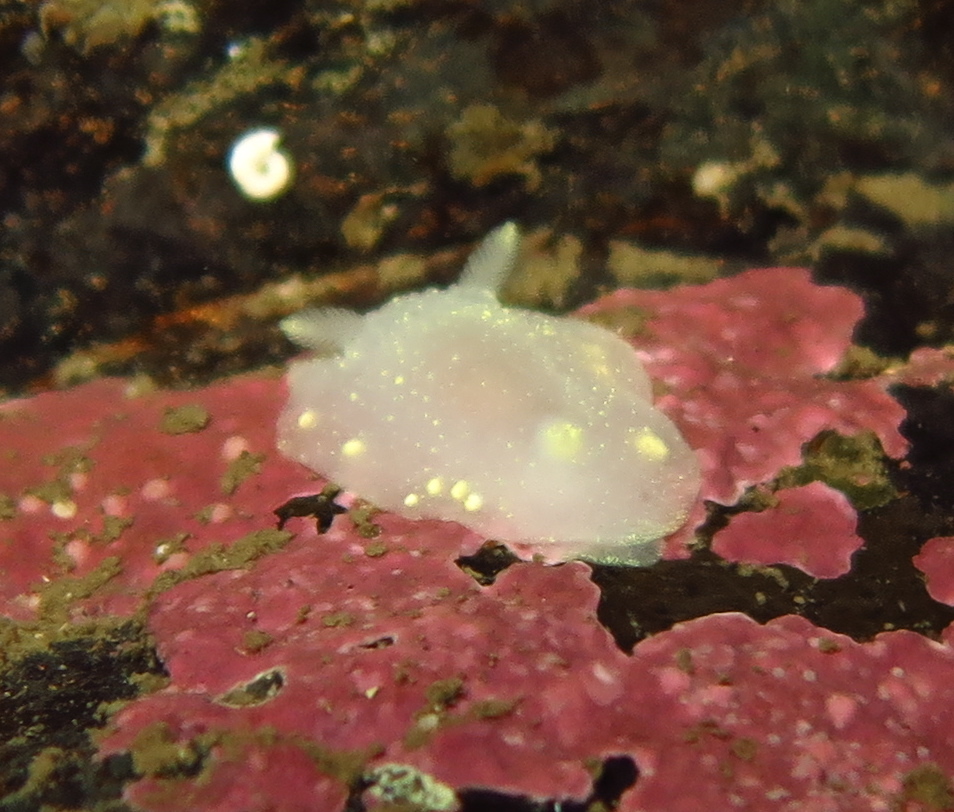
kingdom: Animalia
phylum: Mollusca
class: Gastropoda
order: Nudibranchia
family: Cadlinidae
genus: Cadlina
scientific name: Cadlina laevis
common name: White atlantic cadlina
